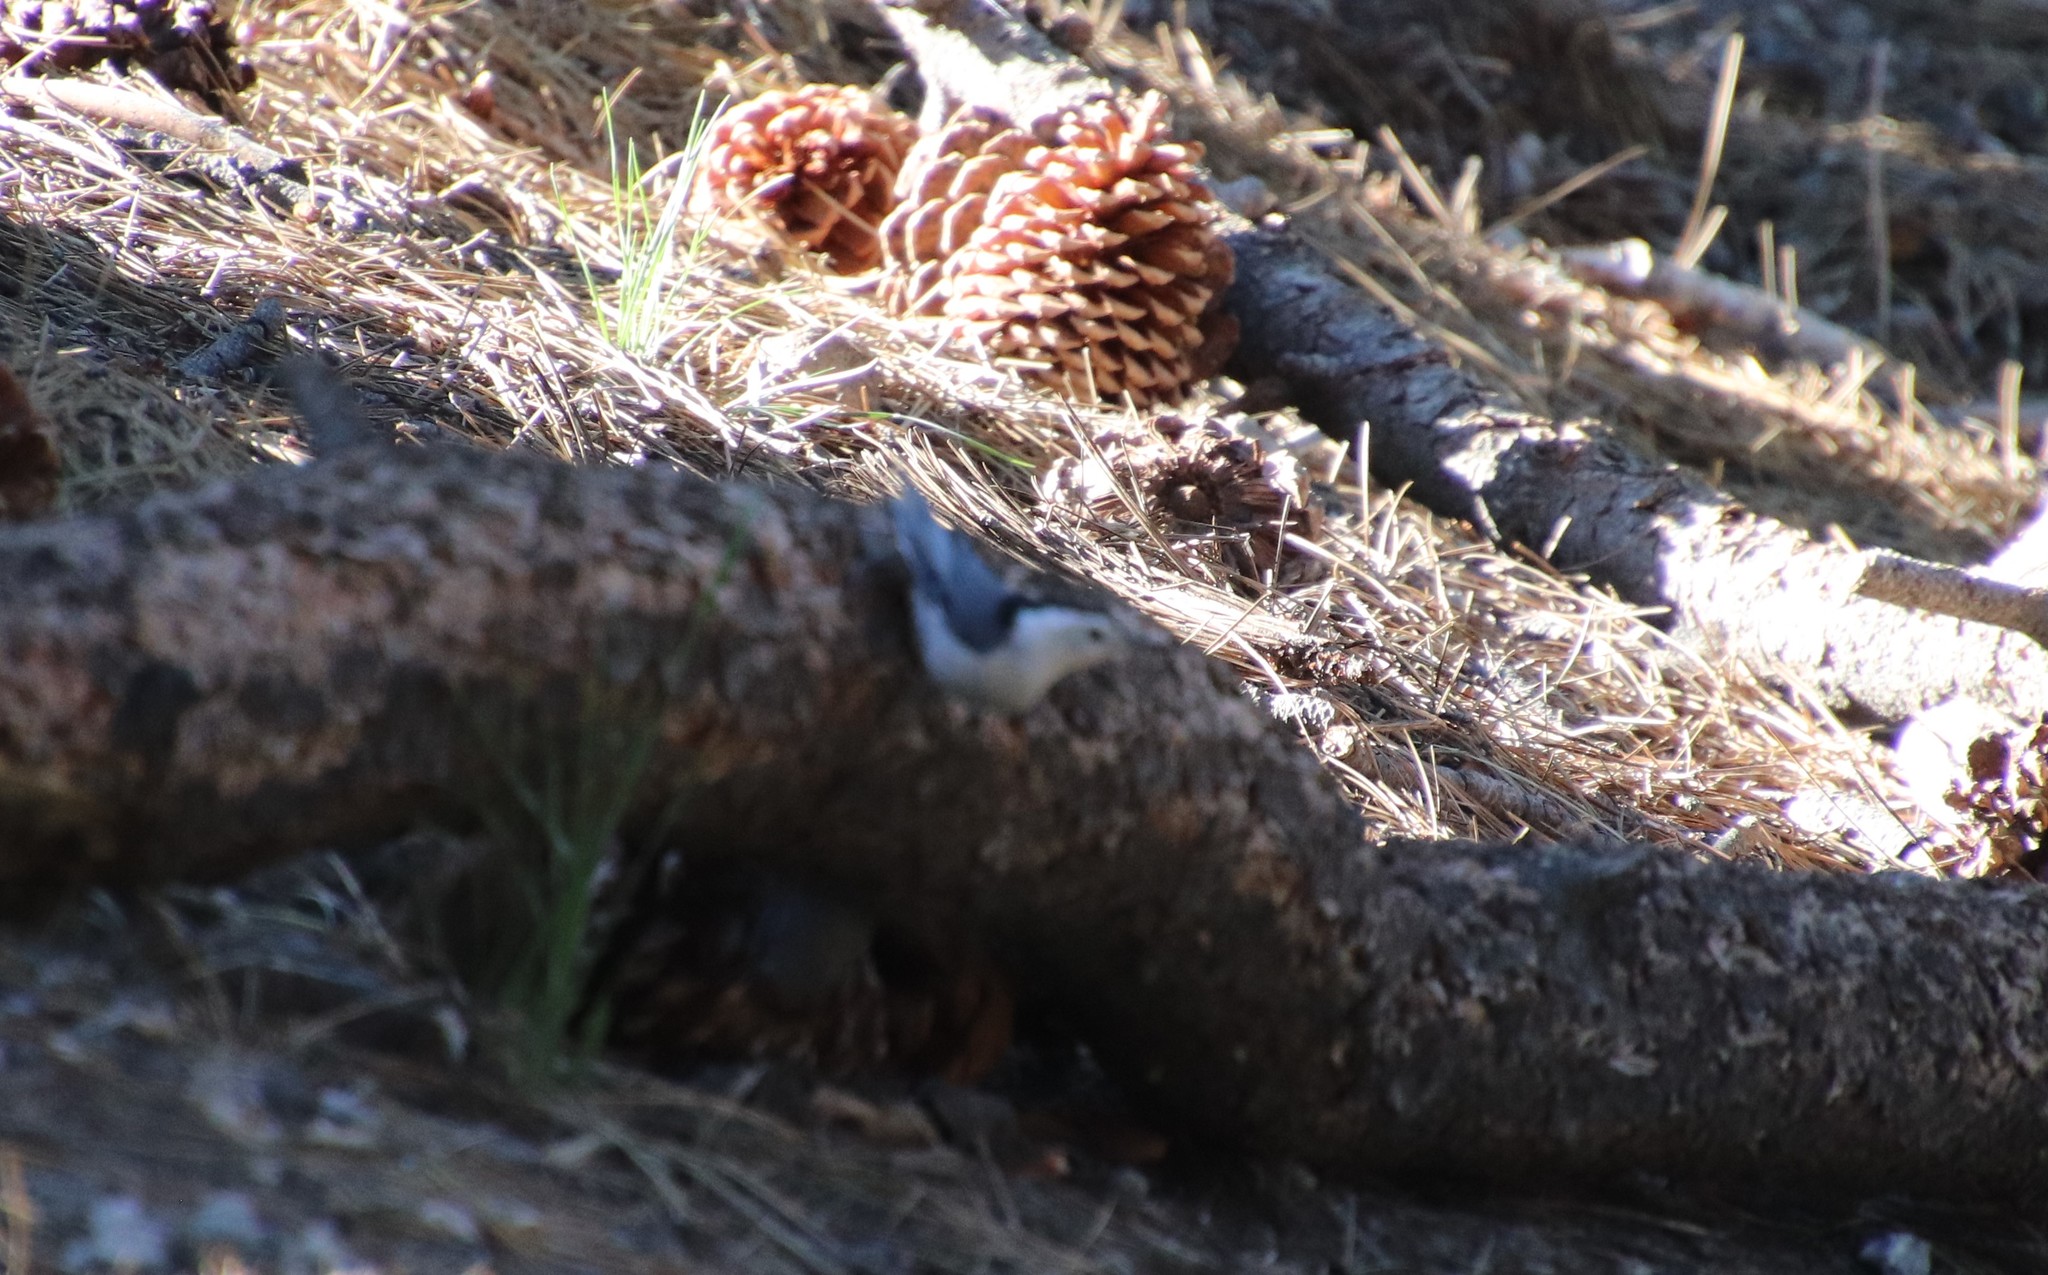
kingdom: Animalia
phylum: Chordata
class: Aves
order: Passeriformes
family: Sittidae
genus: Sitta
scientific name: Sitta carolinensis
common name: White-breasted nuthatch
